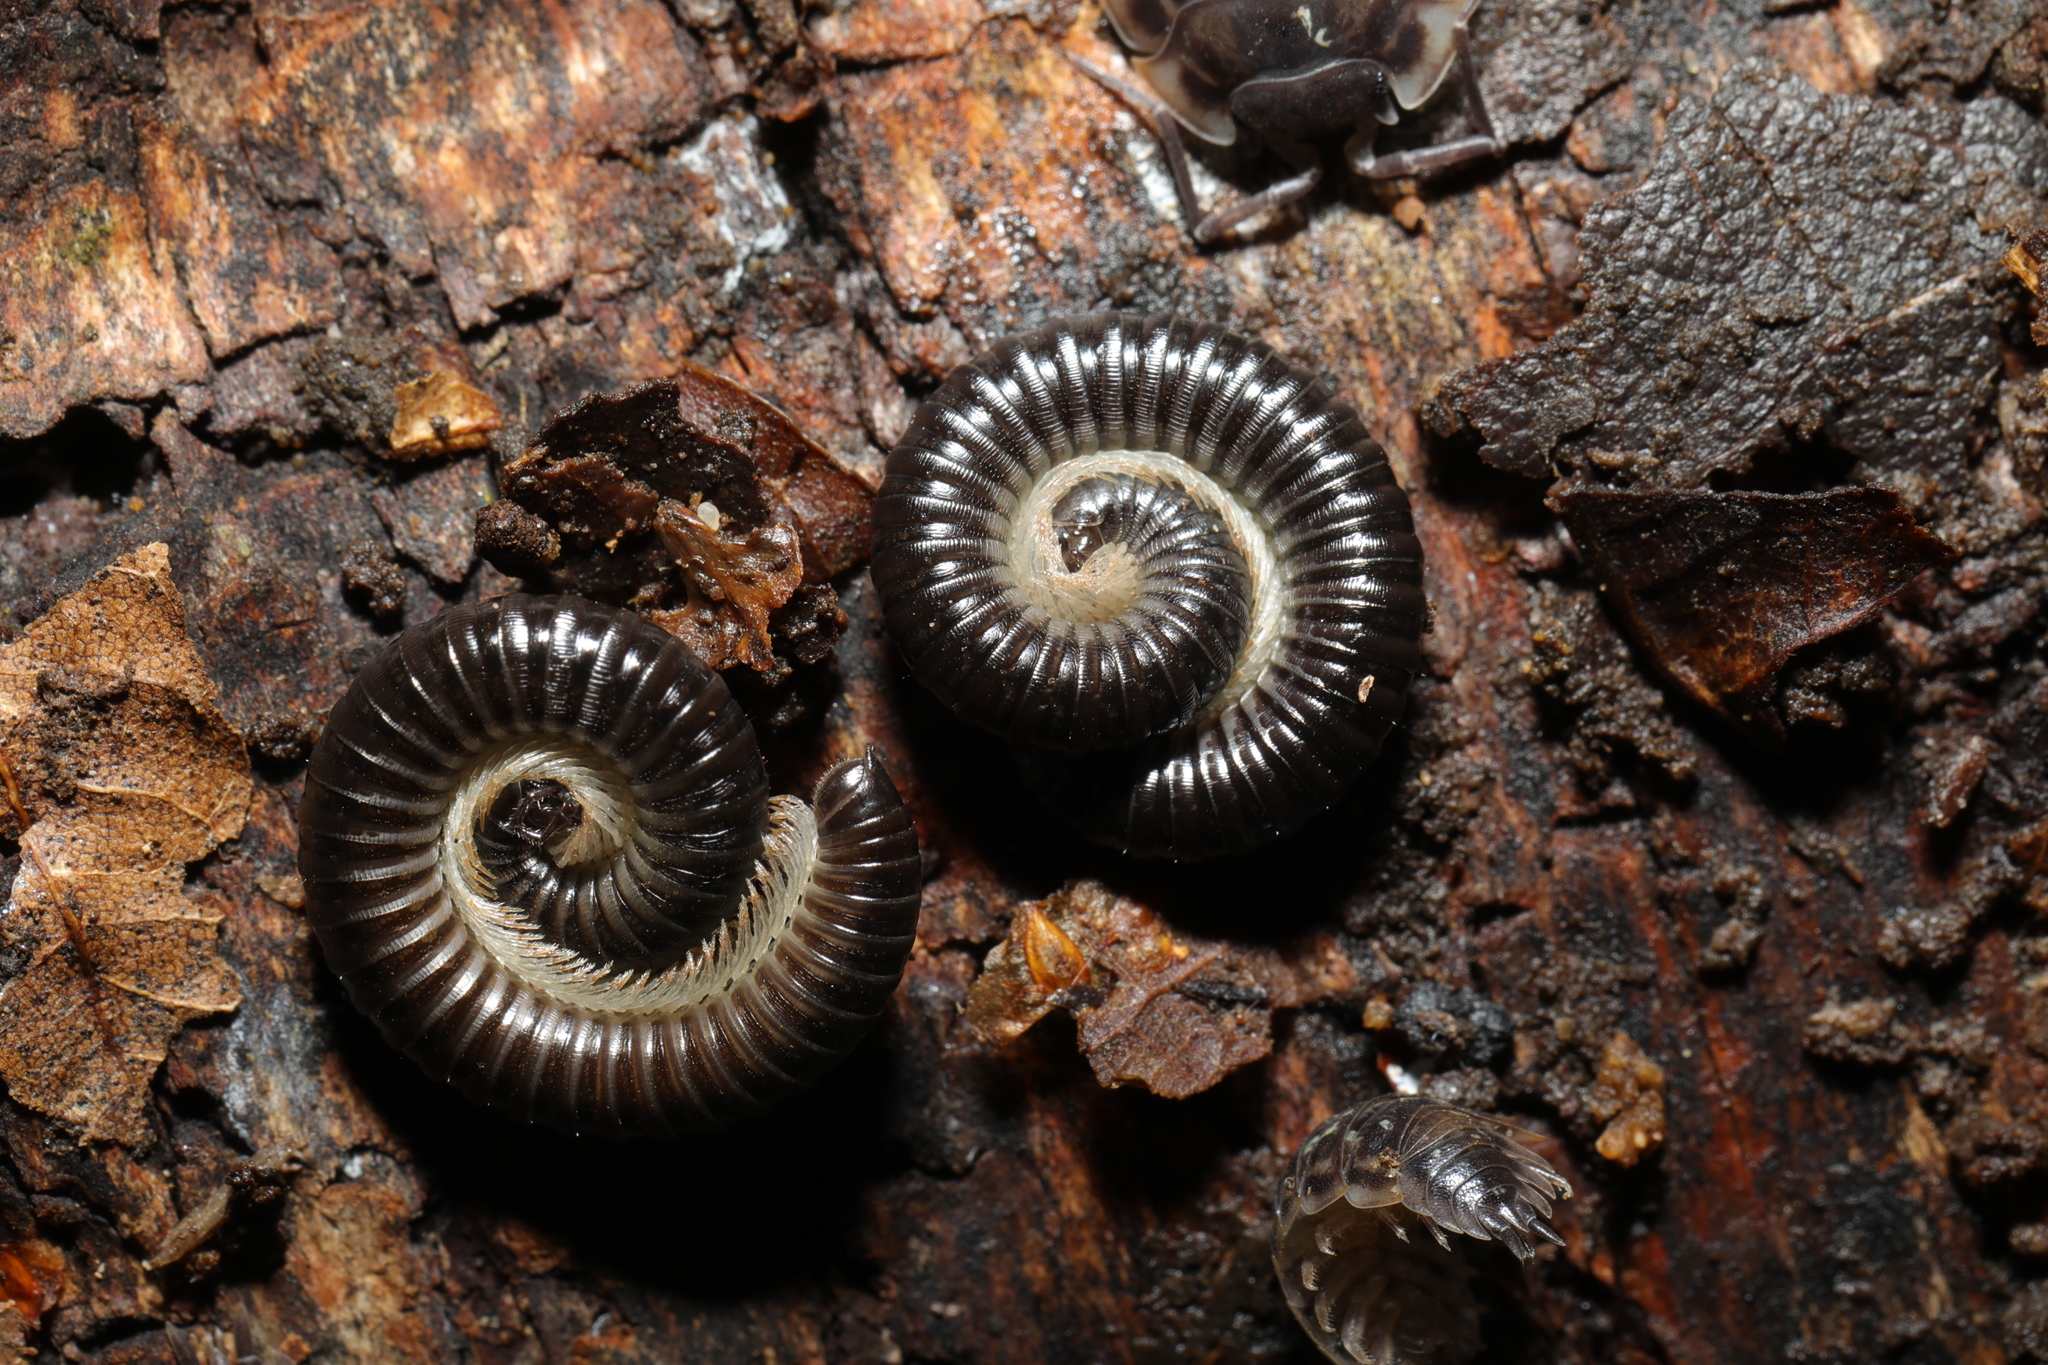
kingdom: Animalia
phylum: Arthropoda
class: Diplopoda
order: Julida
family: Julidae
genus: Tachypodoiulus
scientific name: Tachypodoiulus niger
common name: White-legged snake millipede
